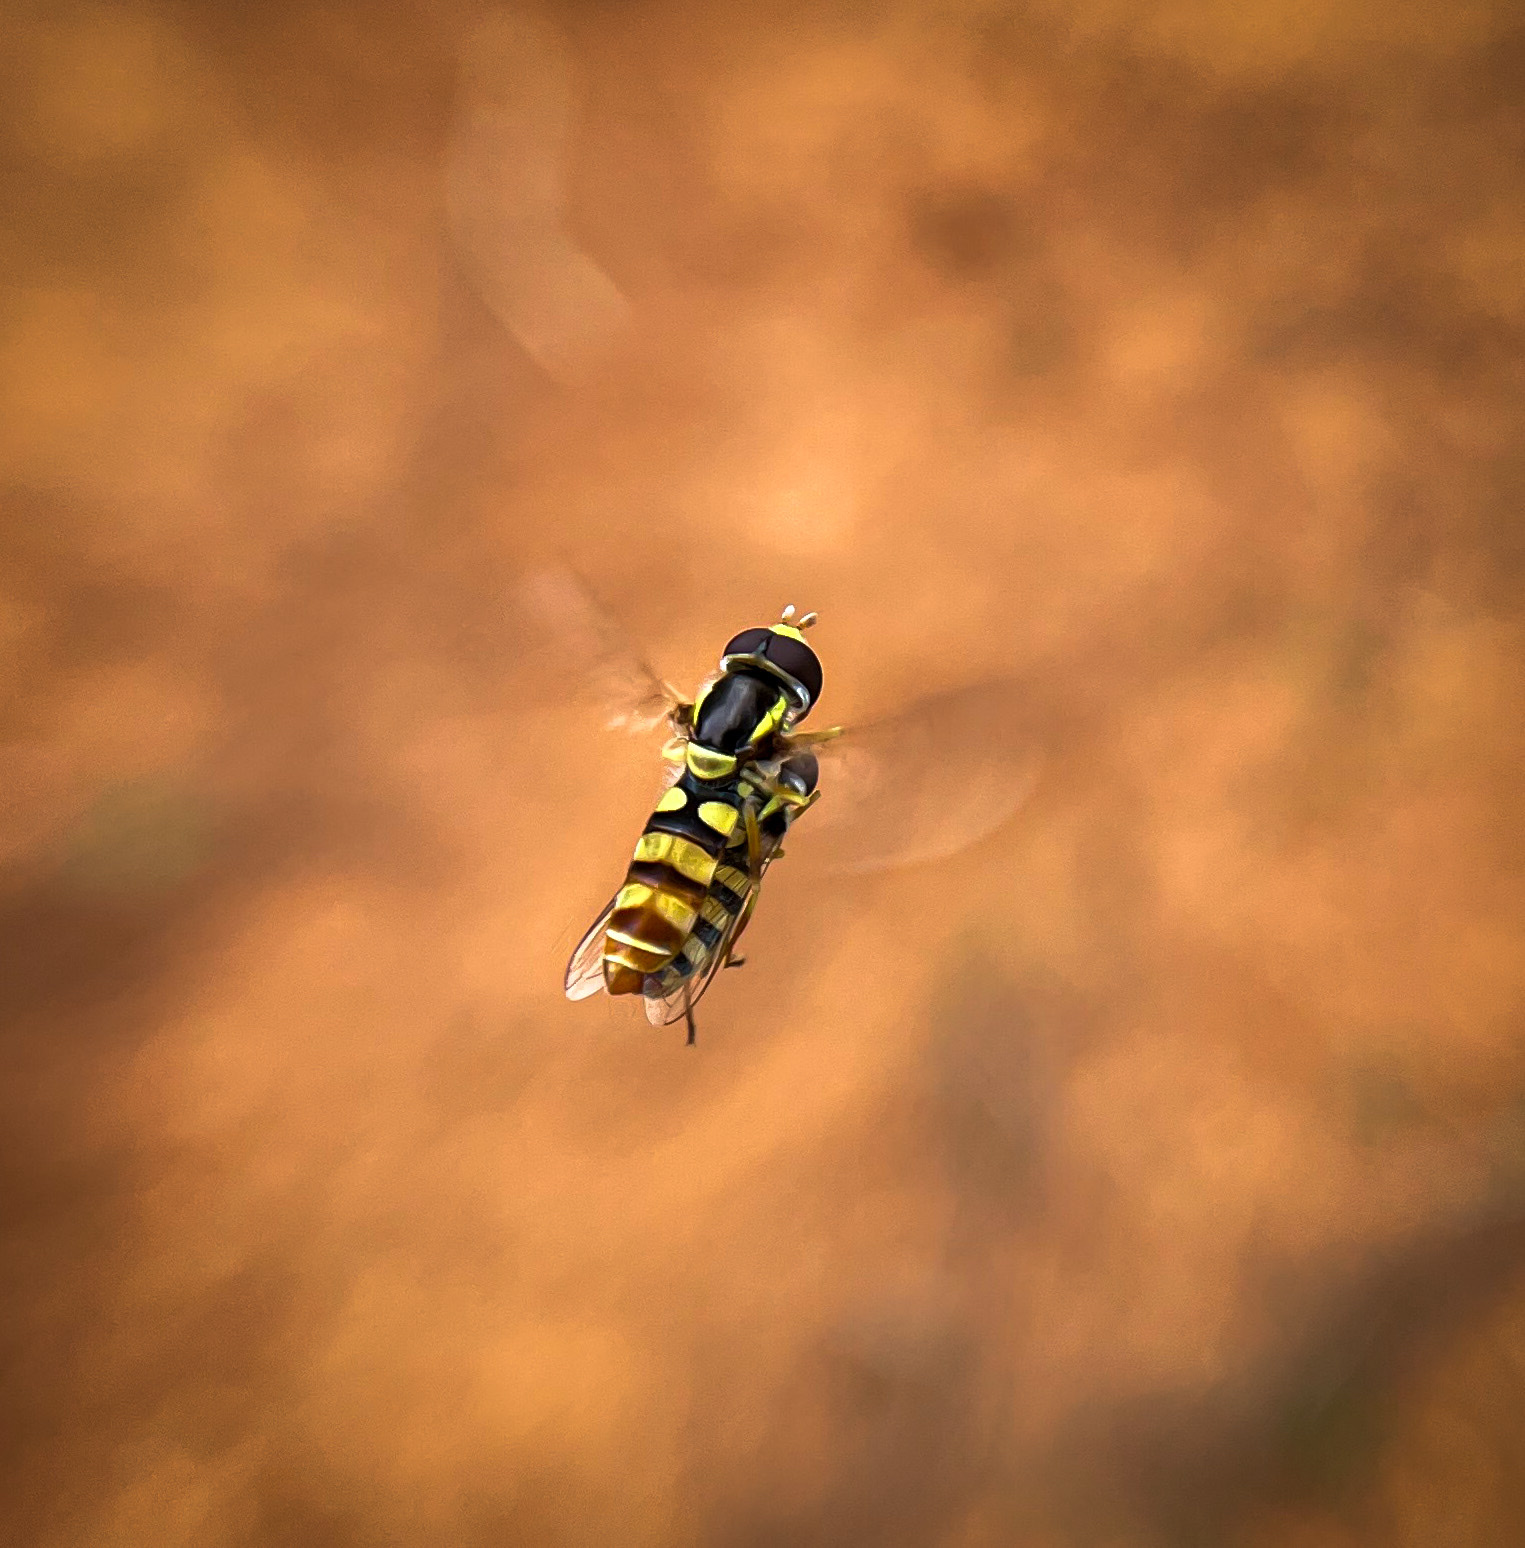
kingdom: Animalia
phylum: Arthropoda
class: Insecta
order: Diptera
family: Syrphidae
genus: Ischiodon
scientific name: Ischiodon scutellaris
